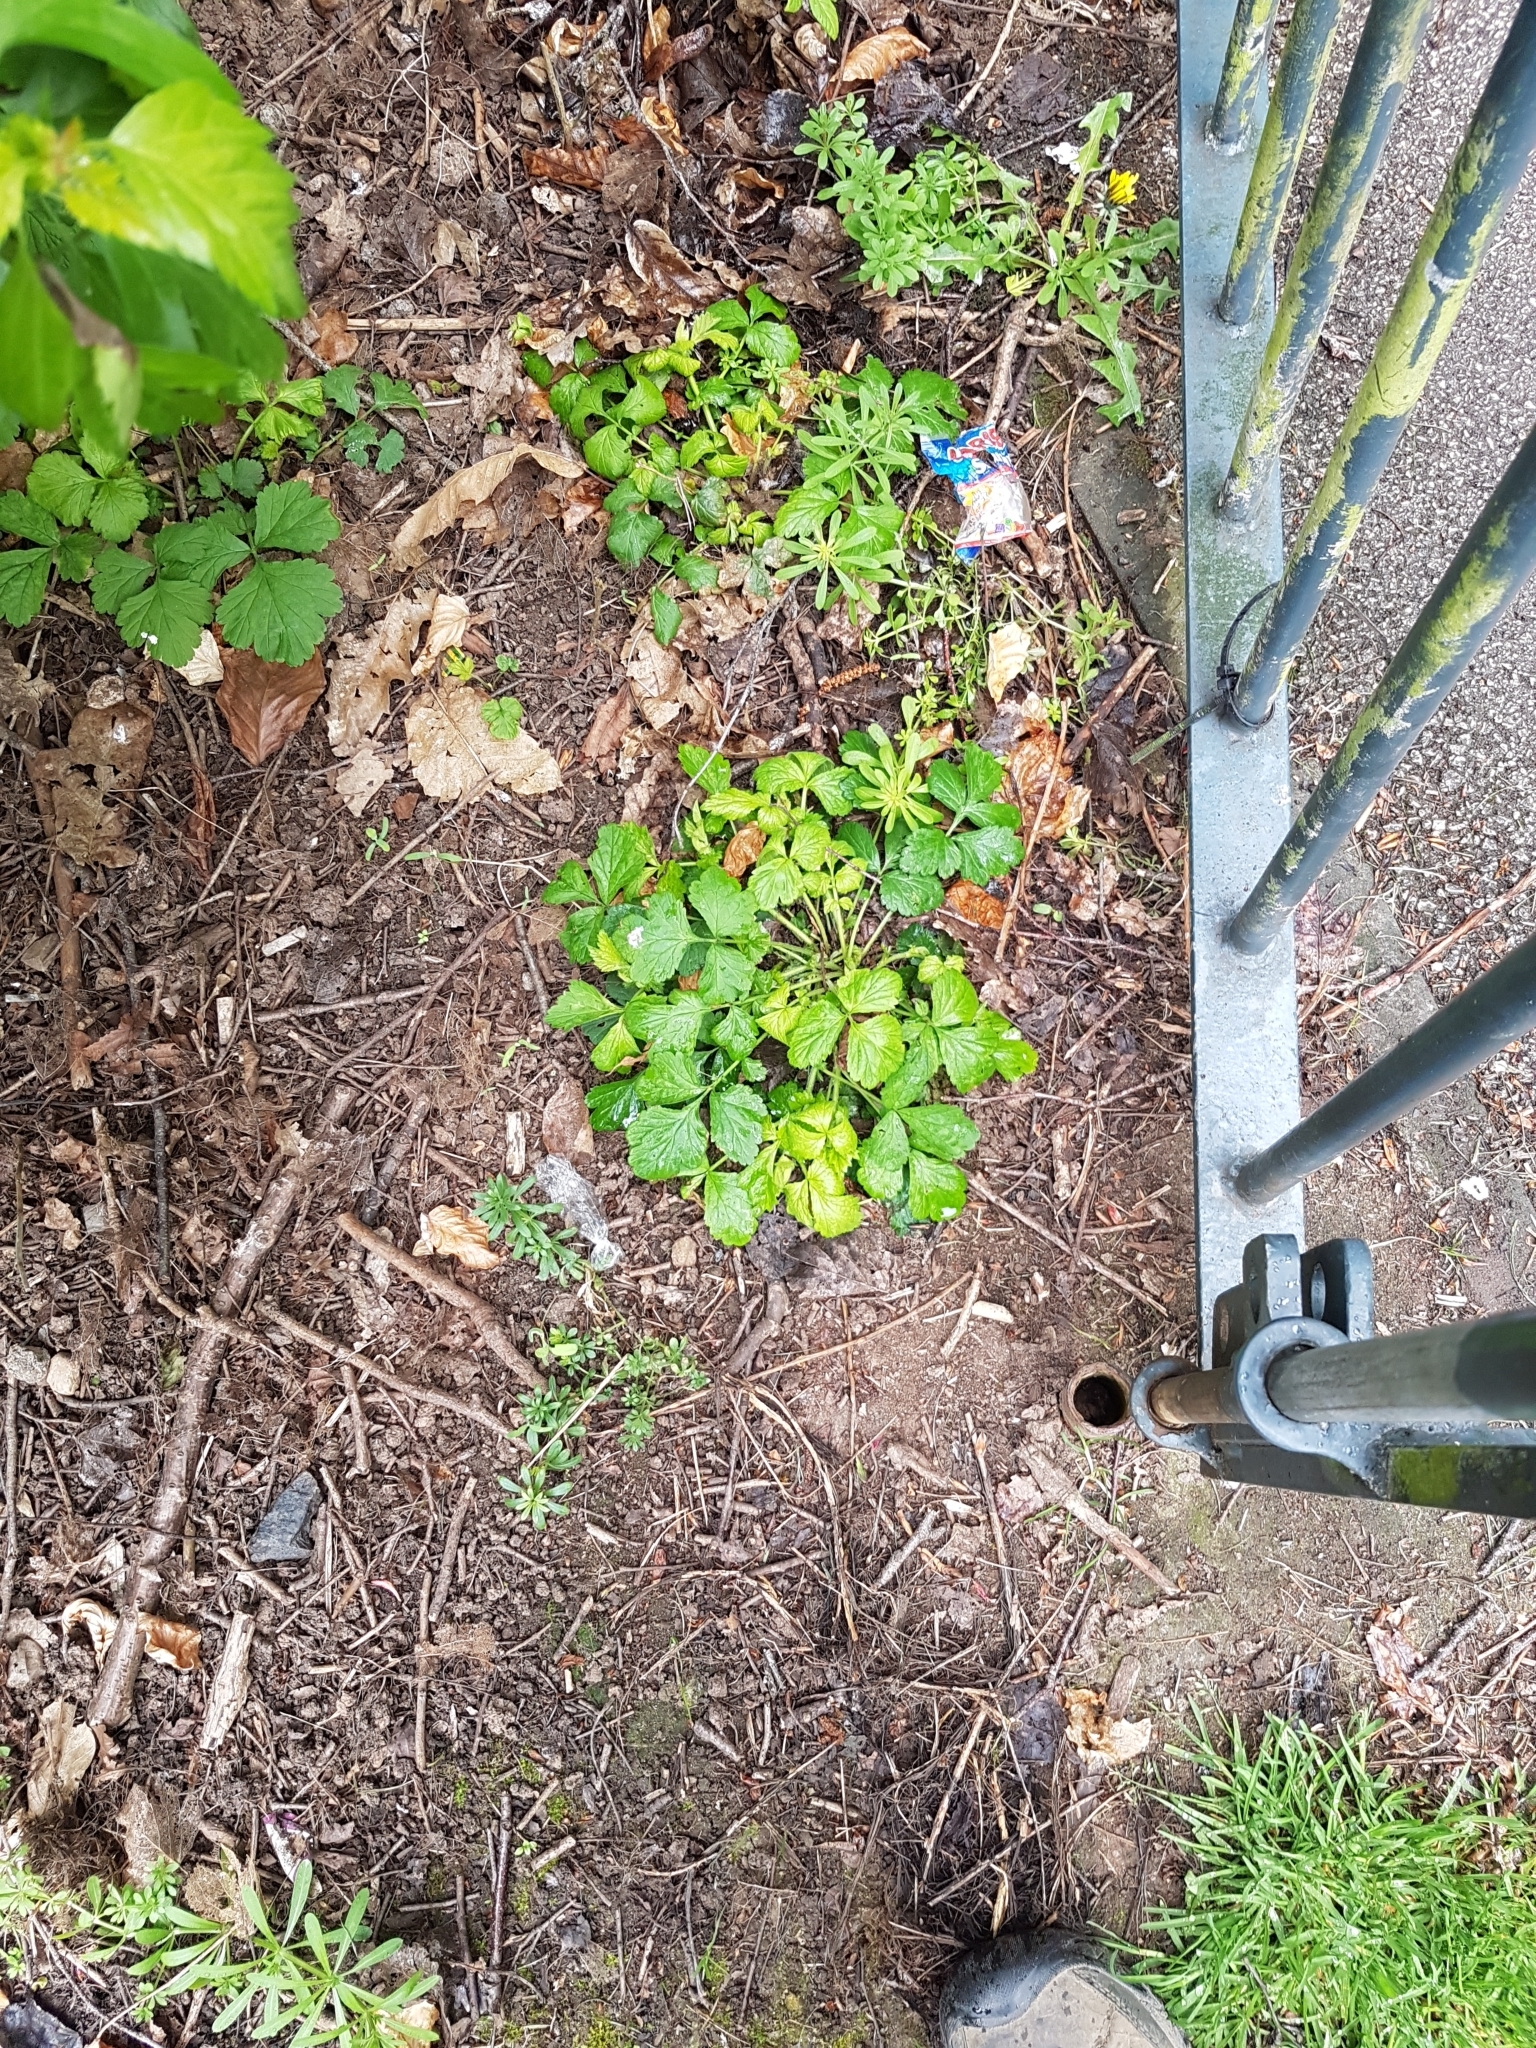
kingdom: Plantae
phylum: Tracheophyta
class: Magnoliopsida
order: Rosales
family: Rosaceae
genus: Geum
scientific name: Geum urbanum
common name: Wood avens
